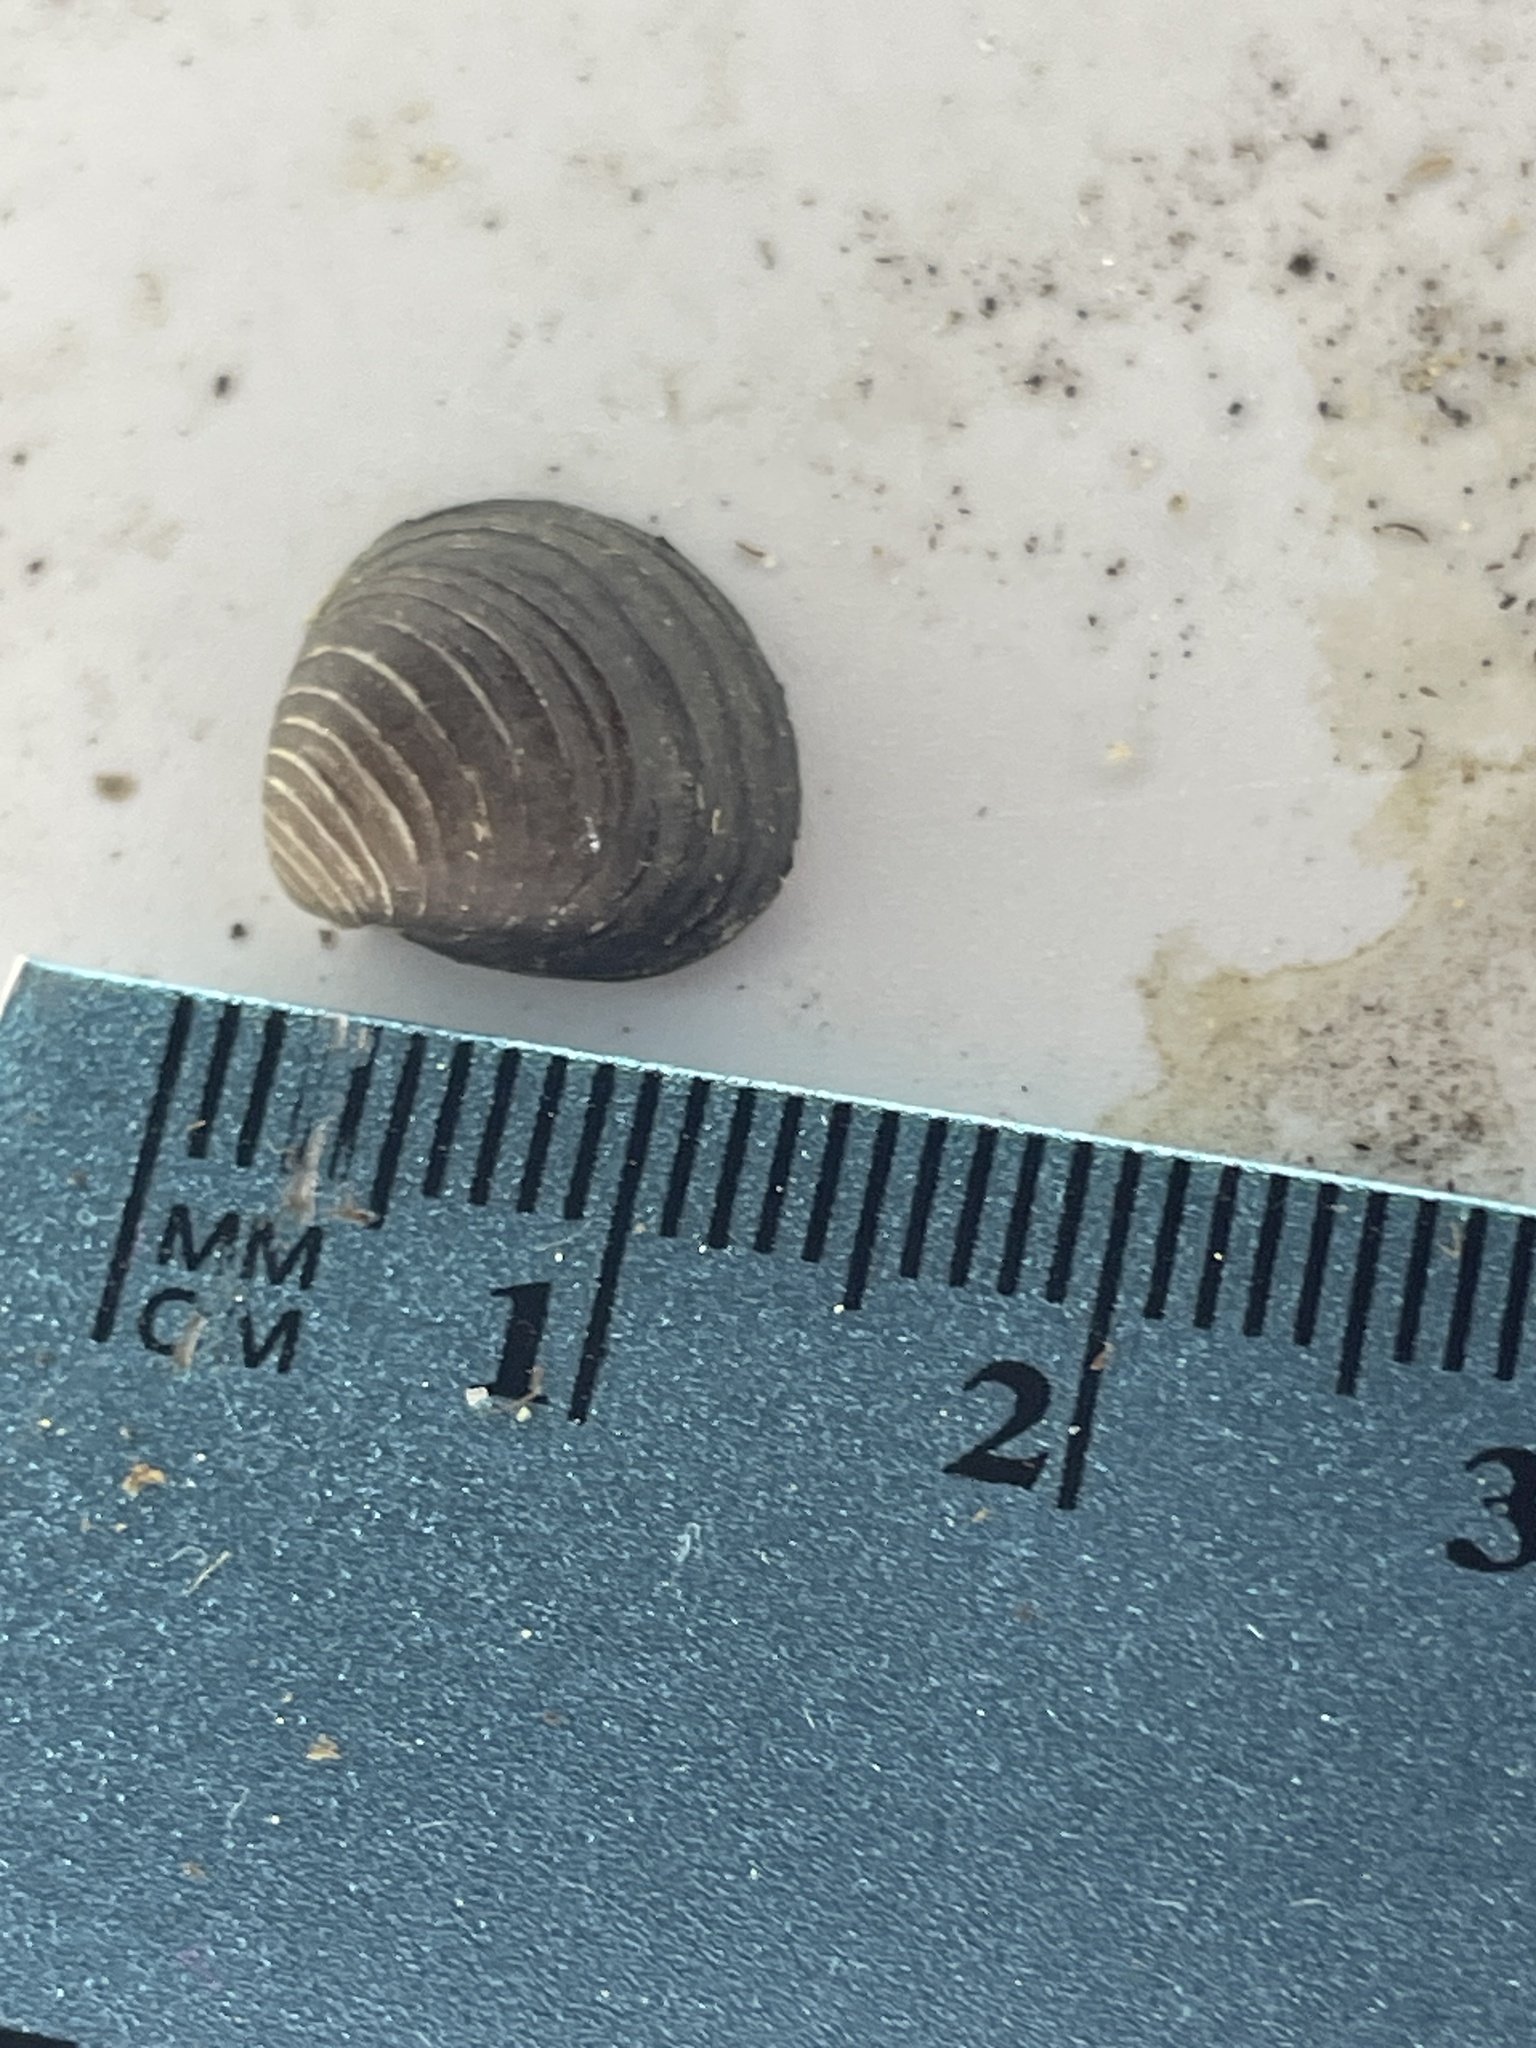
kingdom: Animalia
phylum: Mollusca
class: Bivalvia
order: Venerida
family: Cyrenidae
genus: Corbicula
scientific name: Corbicula fluminea
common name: Asian clam
